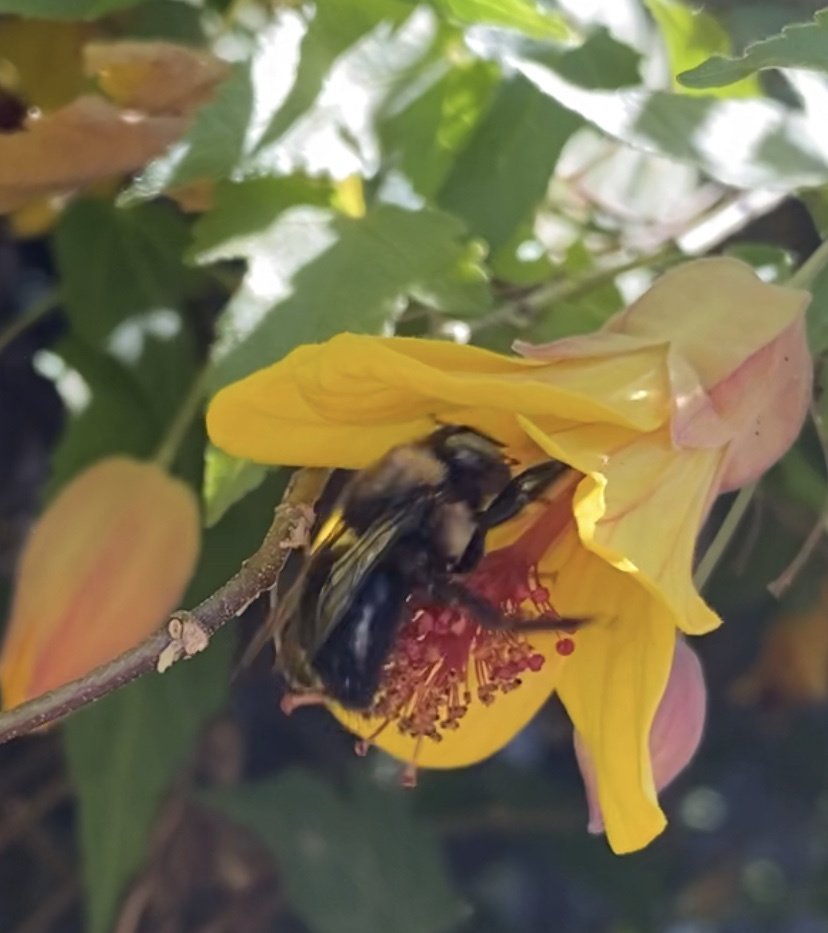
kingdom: Animalia
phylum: Arthropoda
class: Insecta
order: Hymenoptera
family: Apidae
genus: Xylocopa
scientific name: Xylocopa tabaniformis
